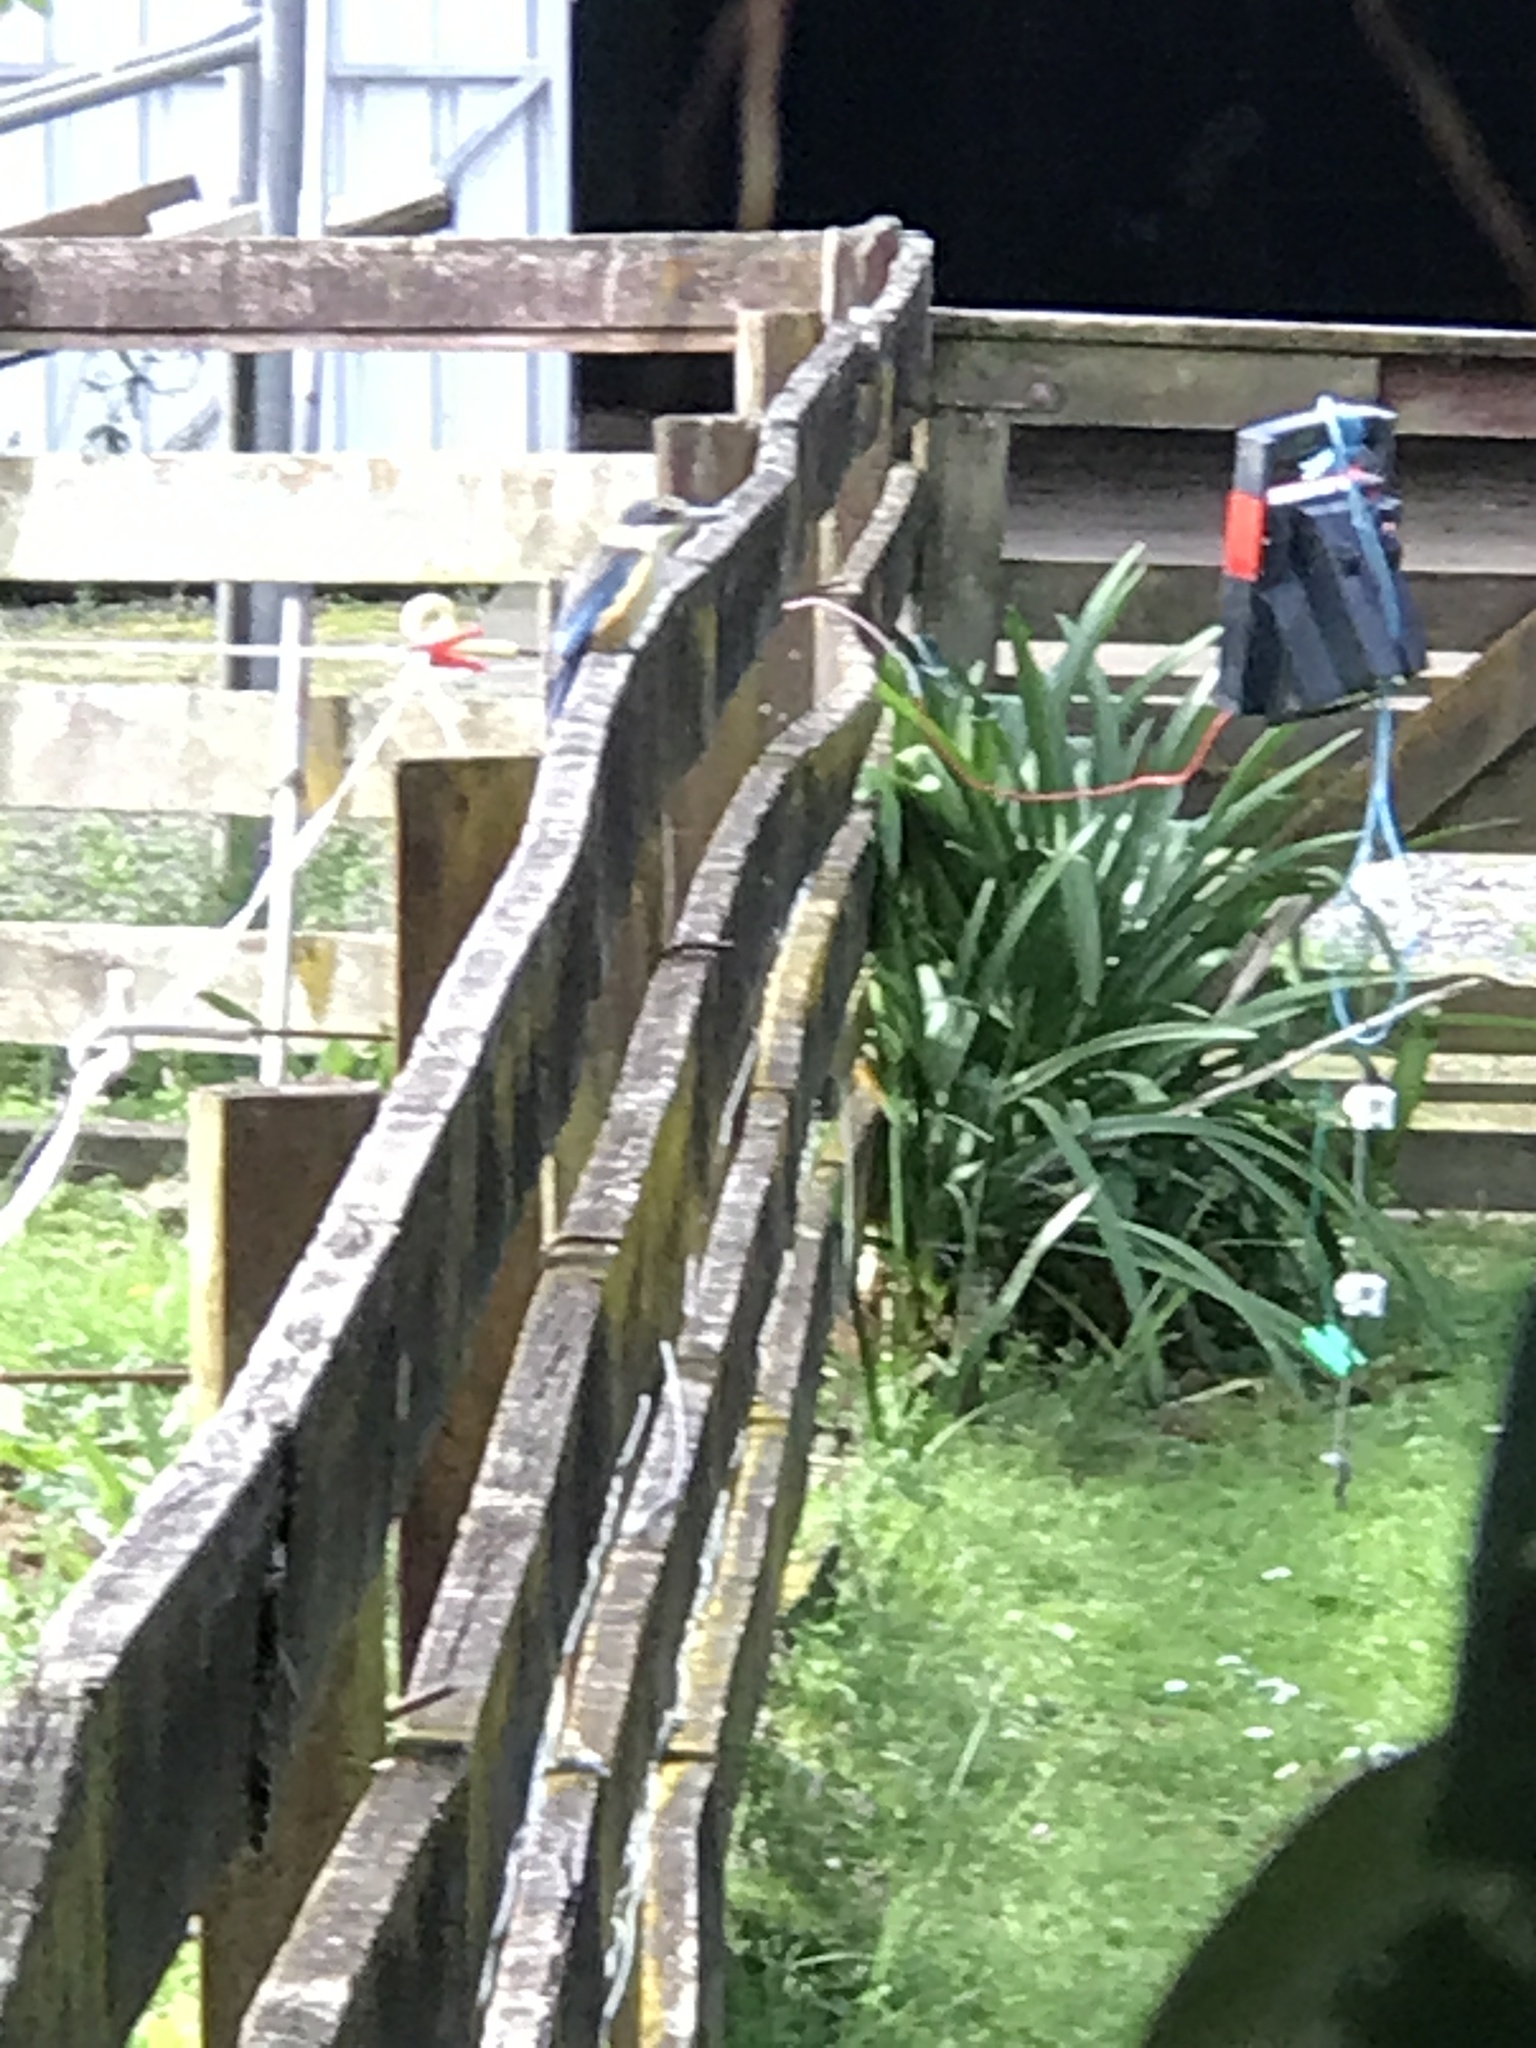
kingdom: Animalia
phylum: Chordata
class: Aves
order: Coraciiformes
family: Alcedinidae
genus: Todiramphus
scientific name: Todiramphus sanctus
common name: Sacred kingfisher
